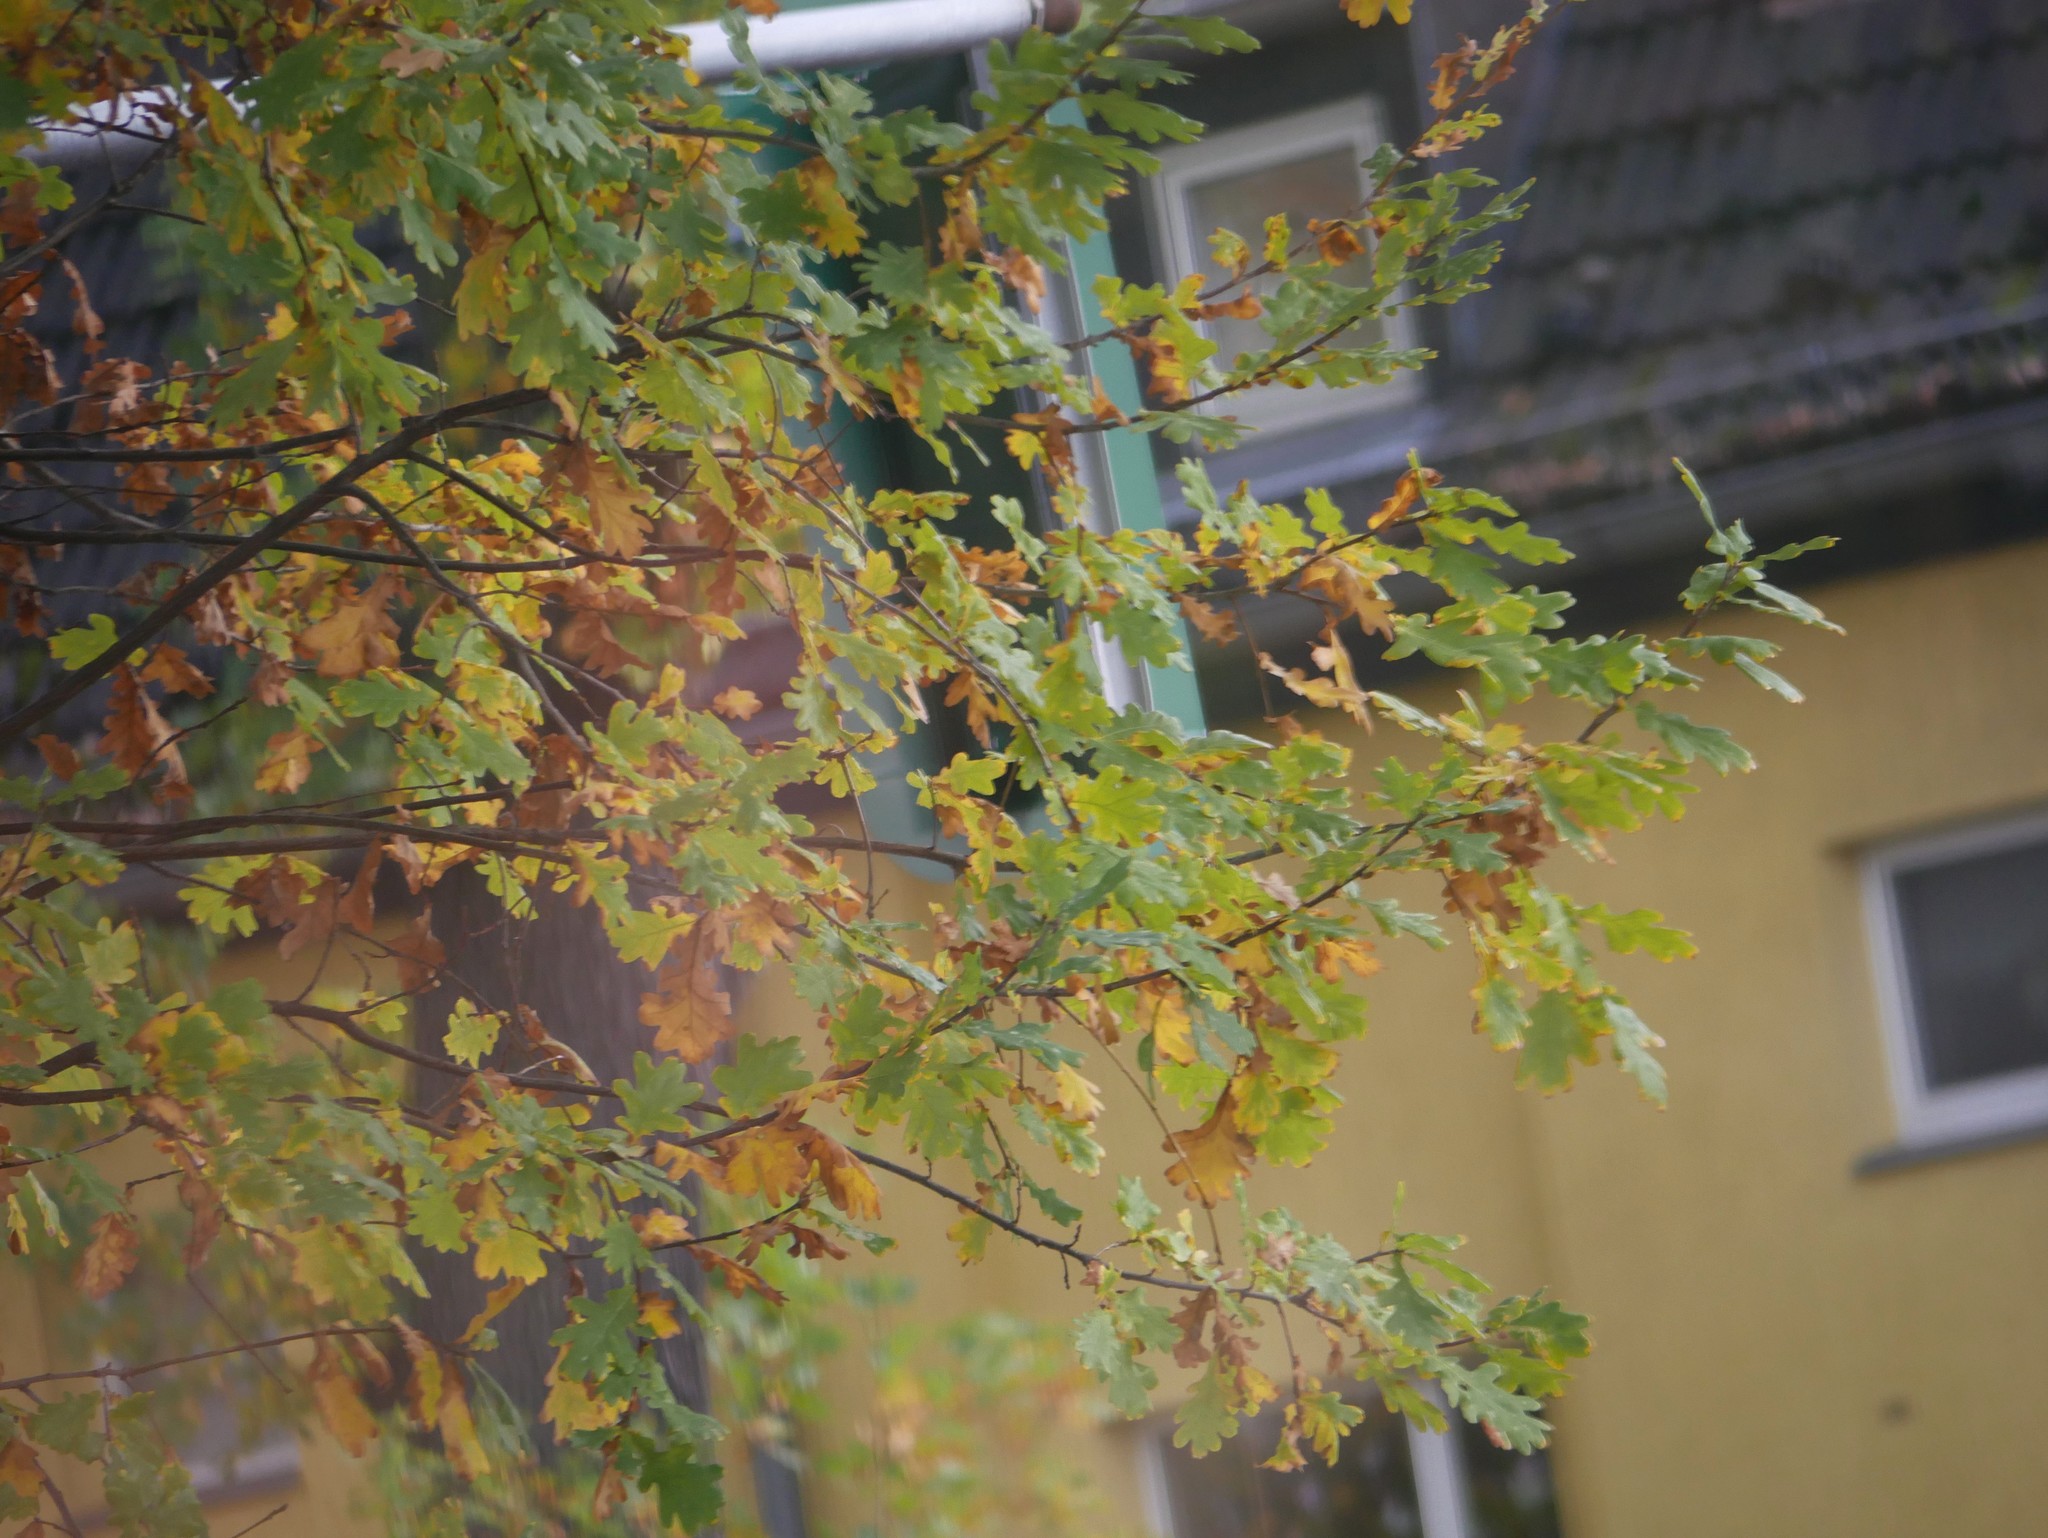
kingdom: Plantae
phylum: Tracheophyta
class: Magnoliopsida
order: Fagales
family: Fagaceae
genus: Quercus
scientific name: Quercus robur
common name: Pedunculate oak
